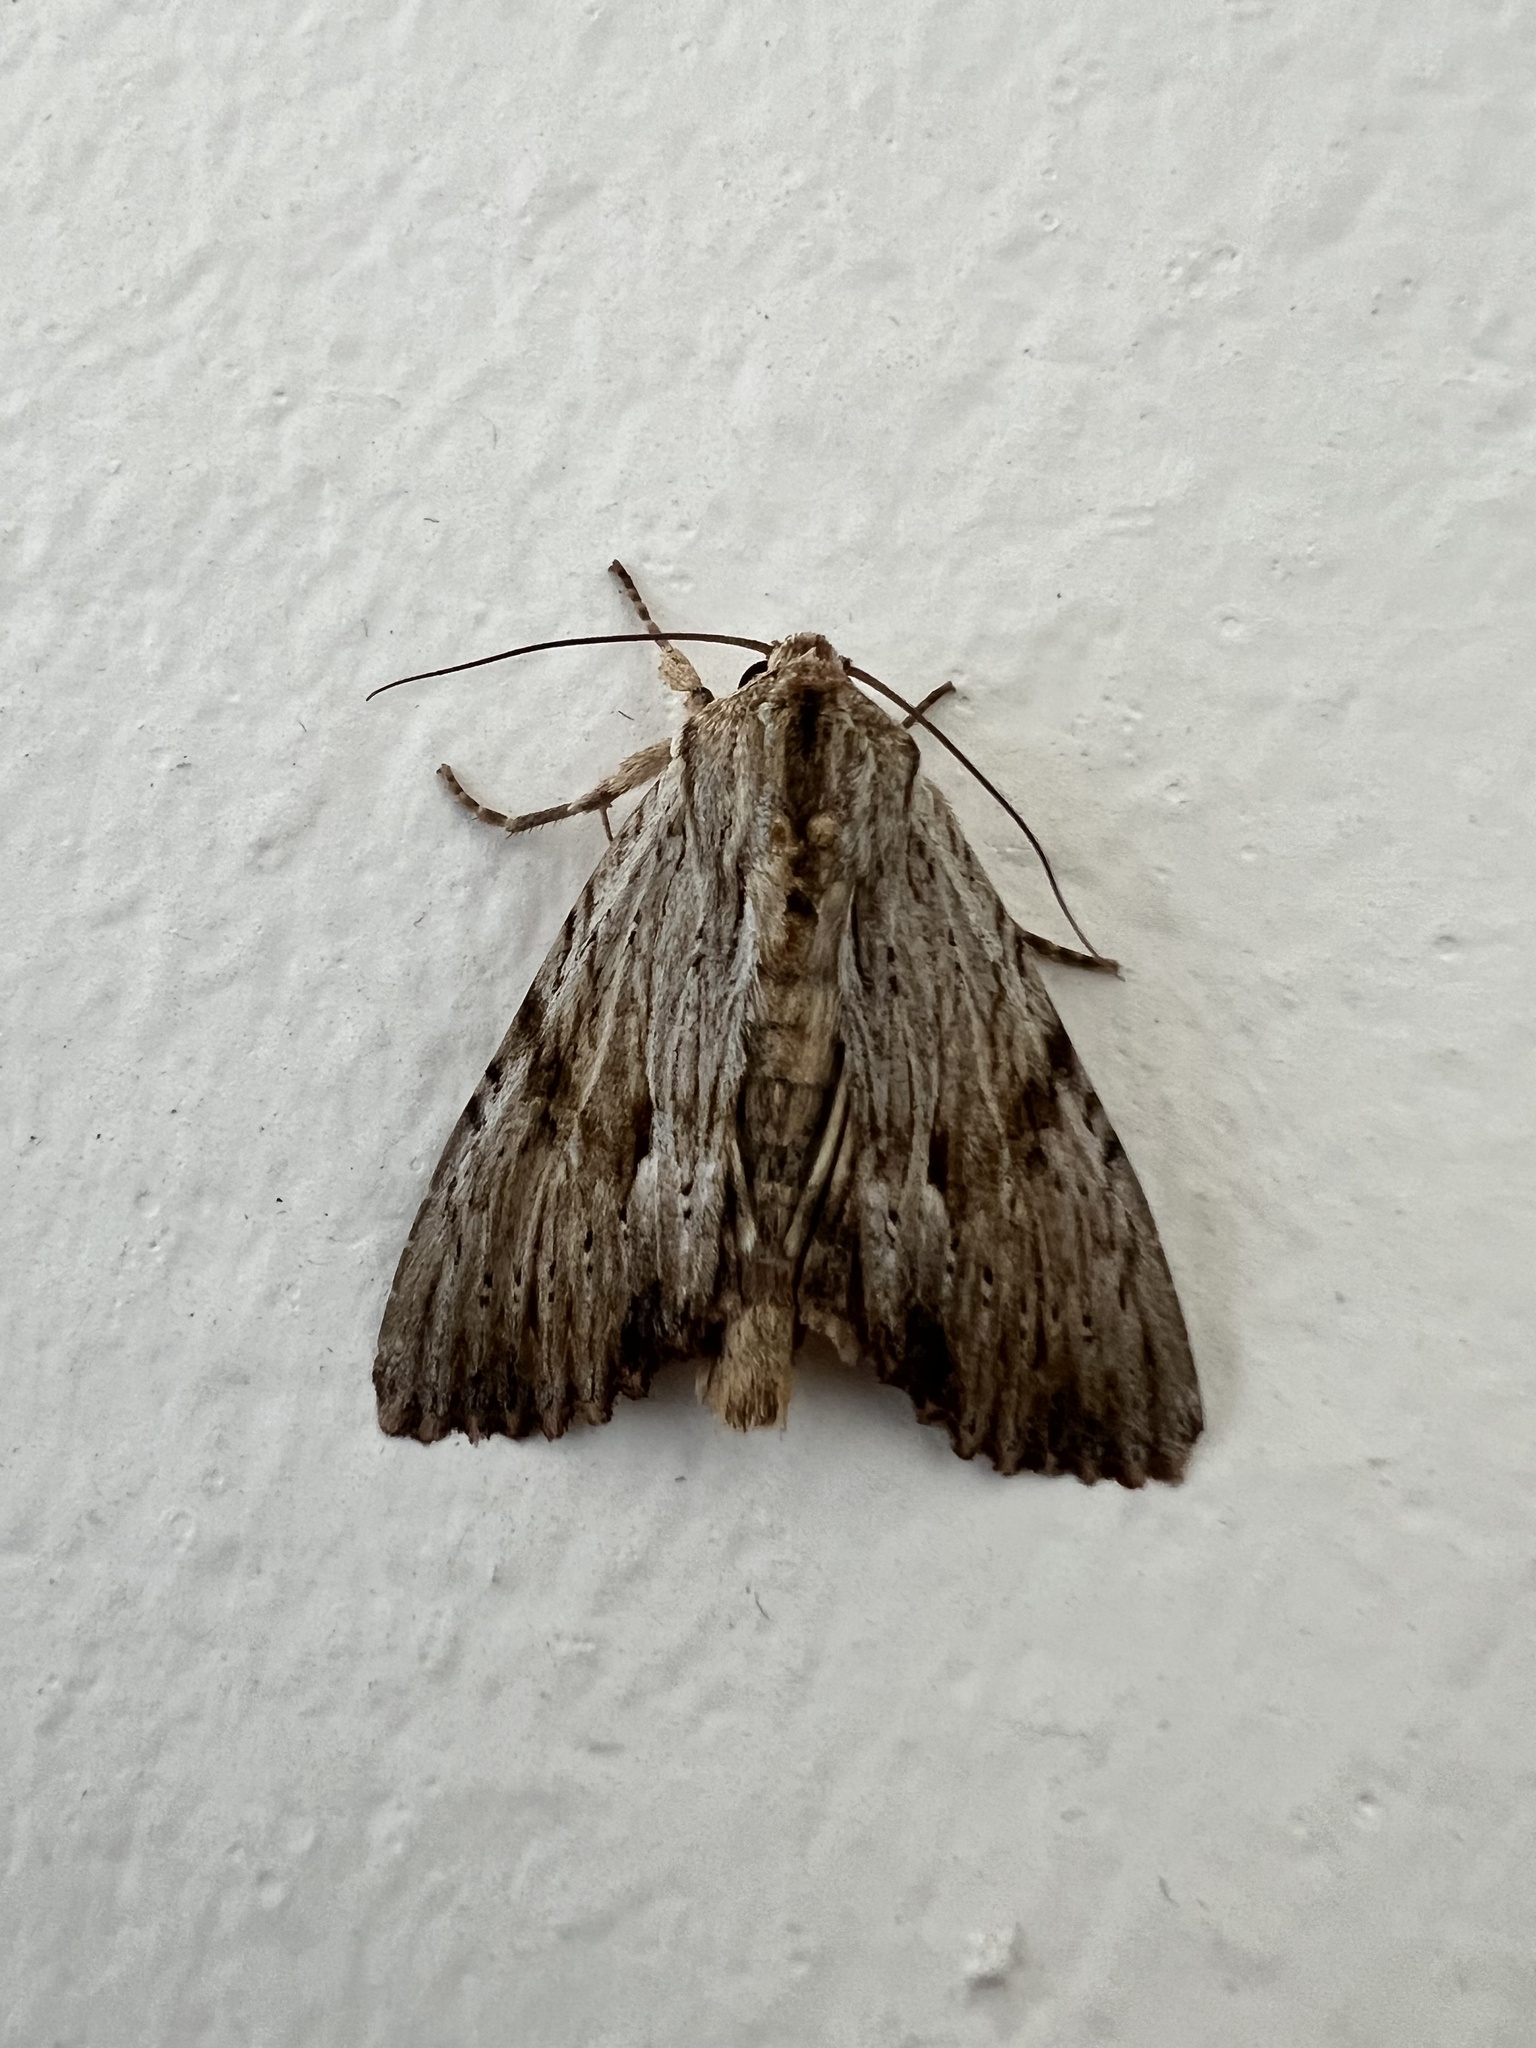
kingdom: Animalia
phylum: Arthropoda
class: Insecta
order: Lepidoptera
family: Noctuidae
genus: Apamea
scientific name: Apamea lithoxylaea
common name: Light arches
